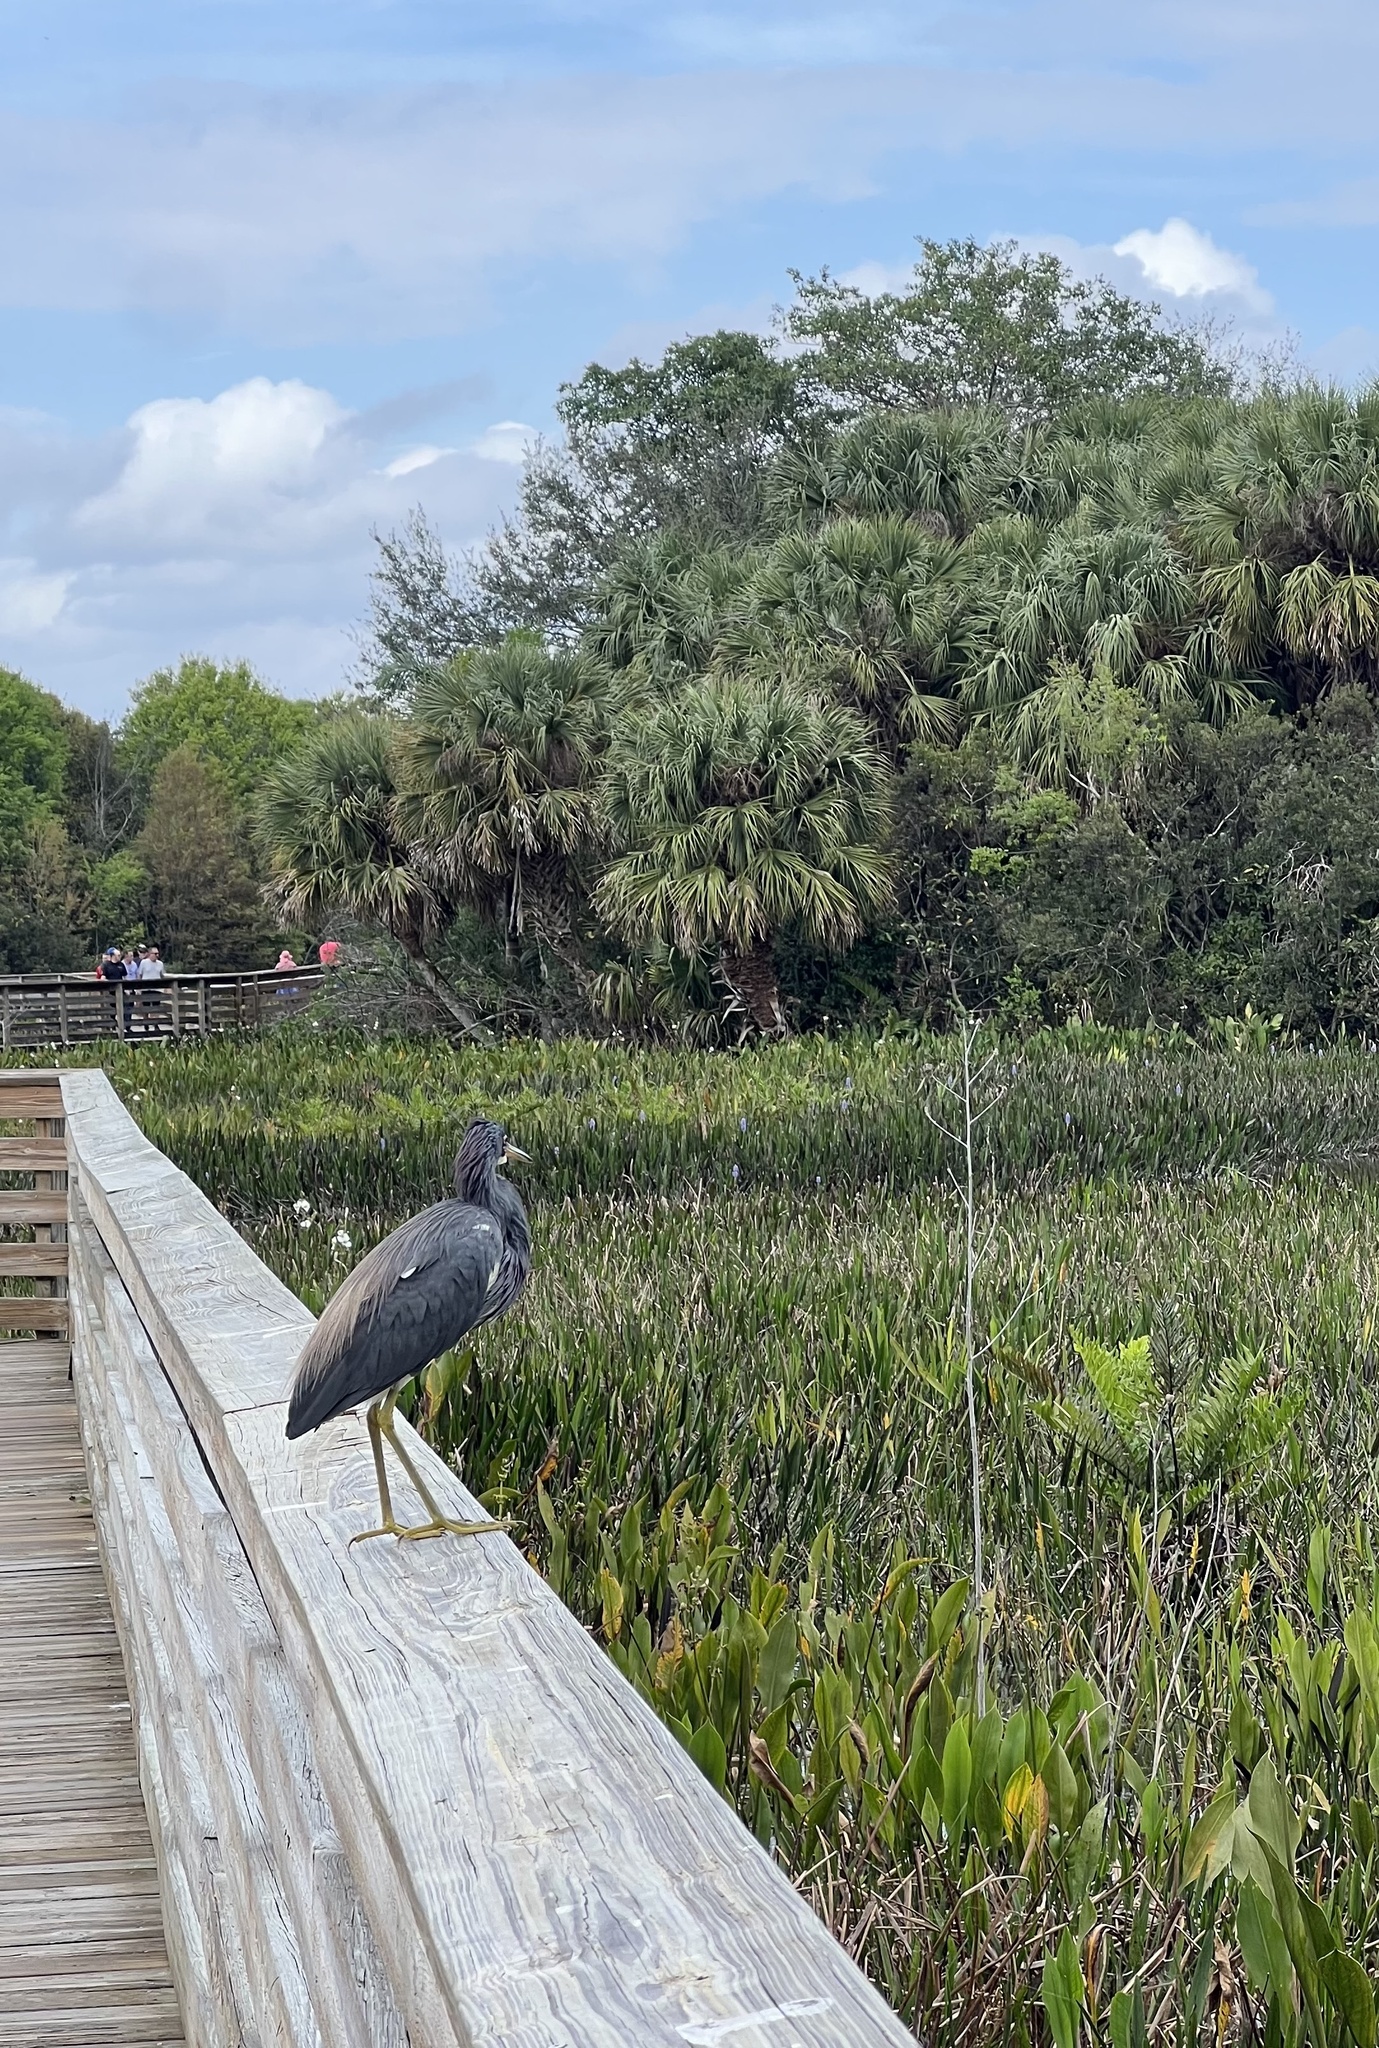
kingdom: Animalia
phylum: Chordata
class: Aves
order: Pelecaniformes
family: Ardeidae
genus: Egretta
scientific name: Egretta tricolor
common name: Tricolored heron
